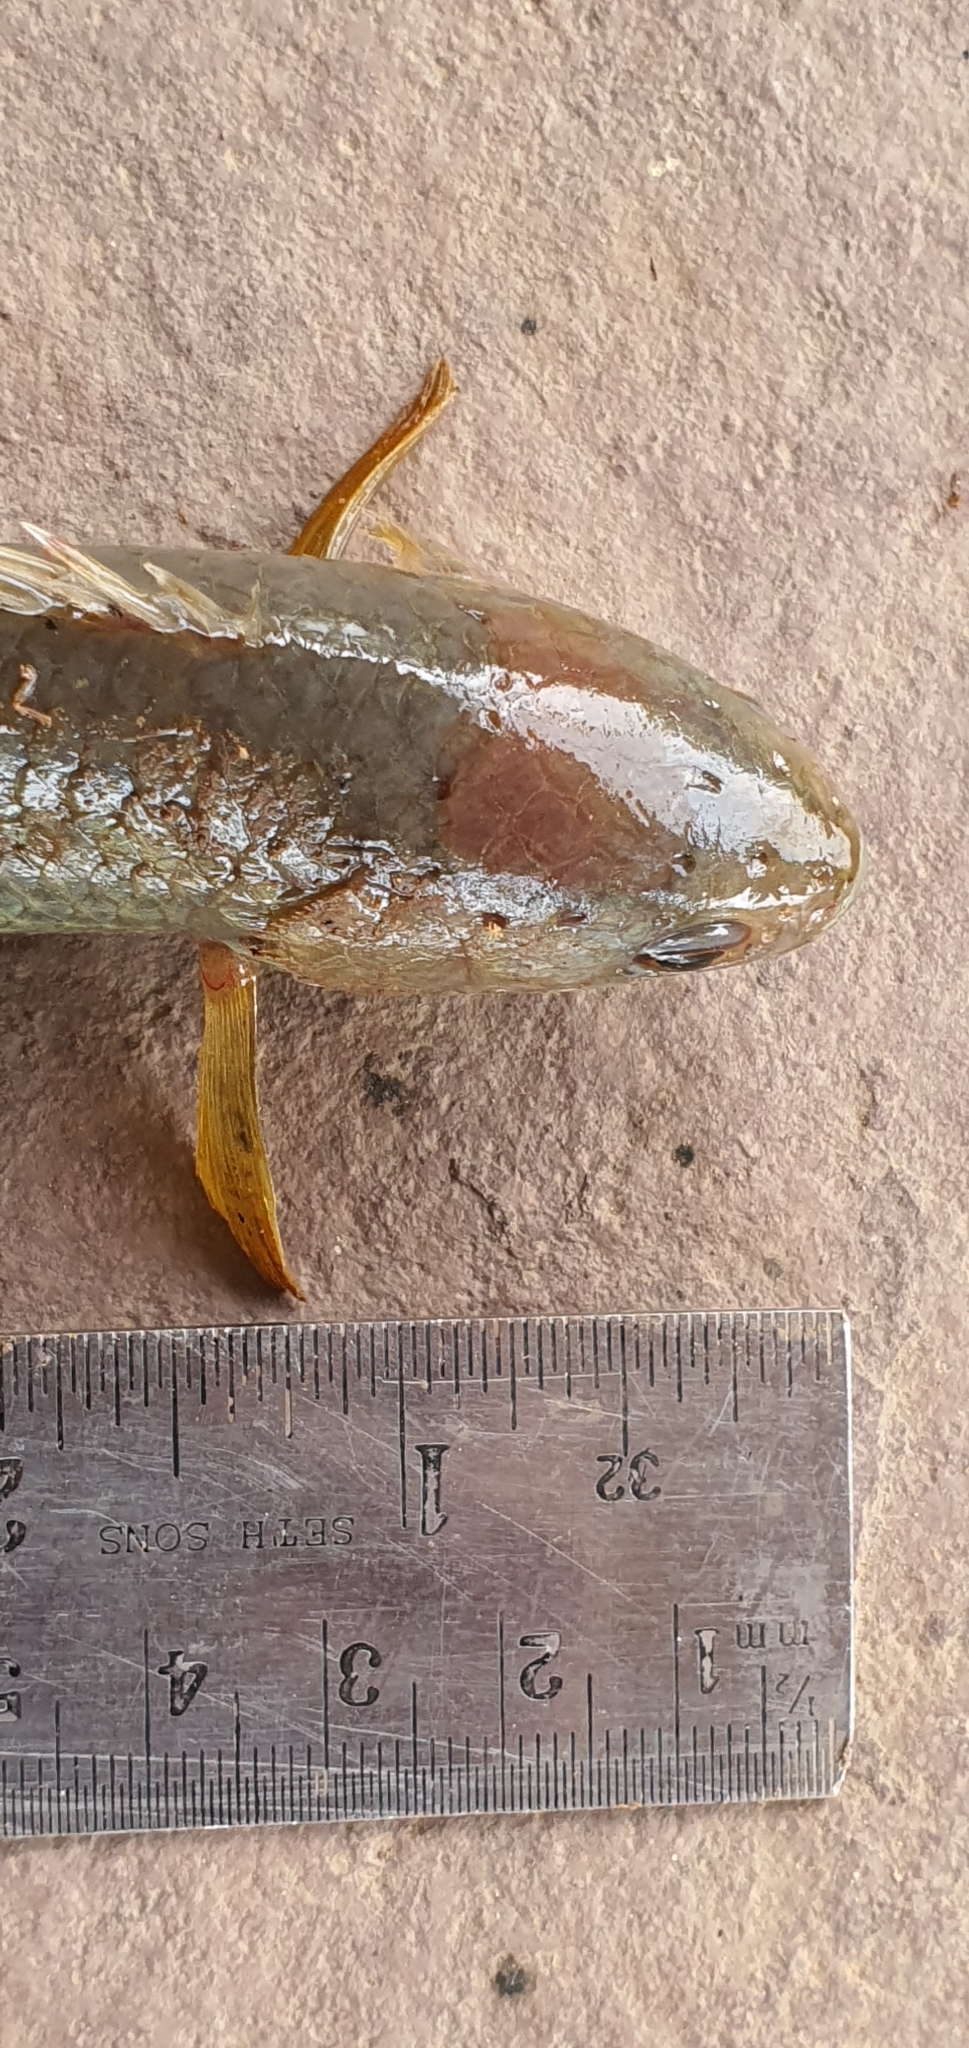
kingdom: Animalia
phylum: Chordata
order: Perciformes
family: Anabantidae
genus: Anabas
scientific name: Anabas testudineus
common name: Climbing perch
